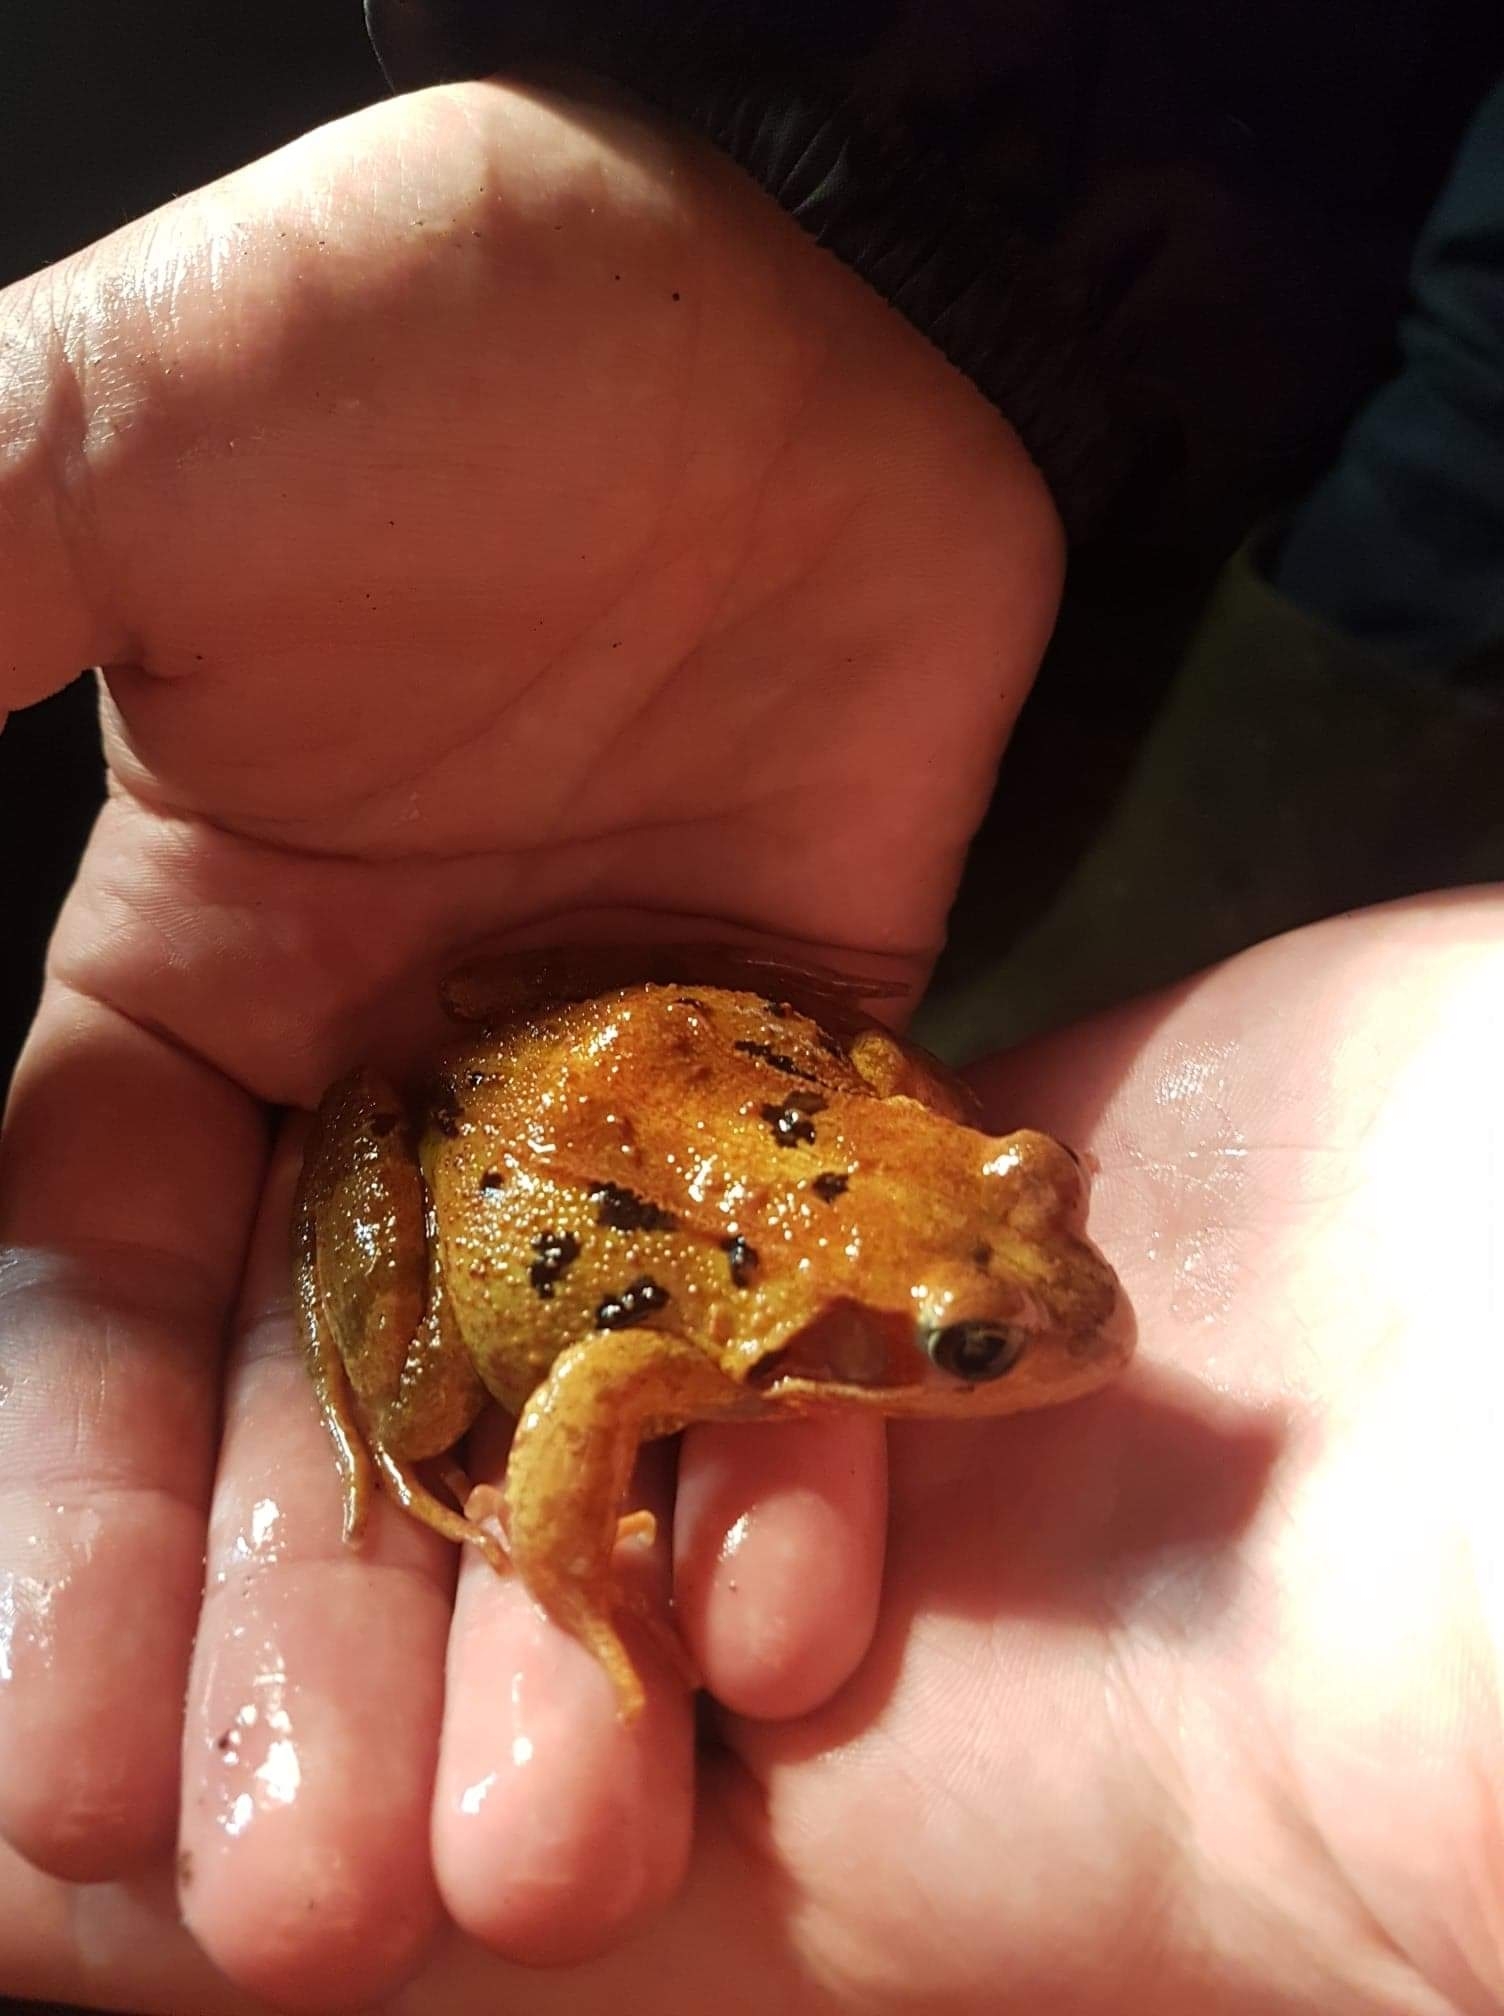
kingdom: Animalia
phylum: Chordata
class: Amphibia
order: Anura
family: Ranidae
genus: Rana
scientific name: Rana temporaria
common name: Common frog
